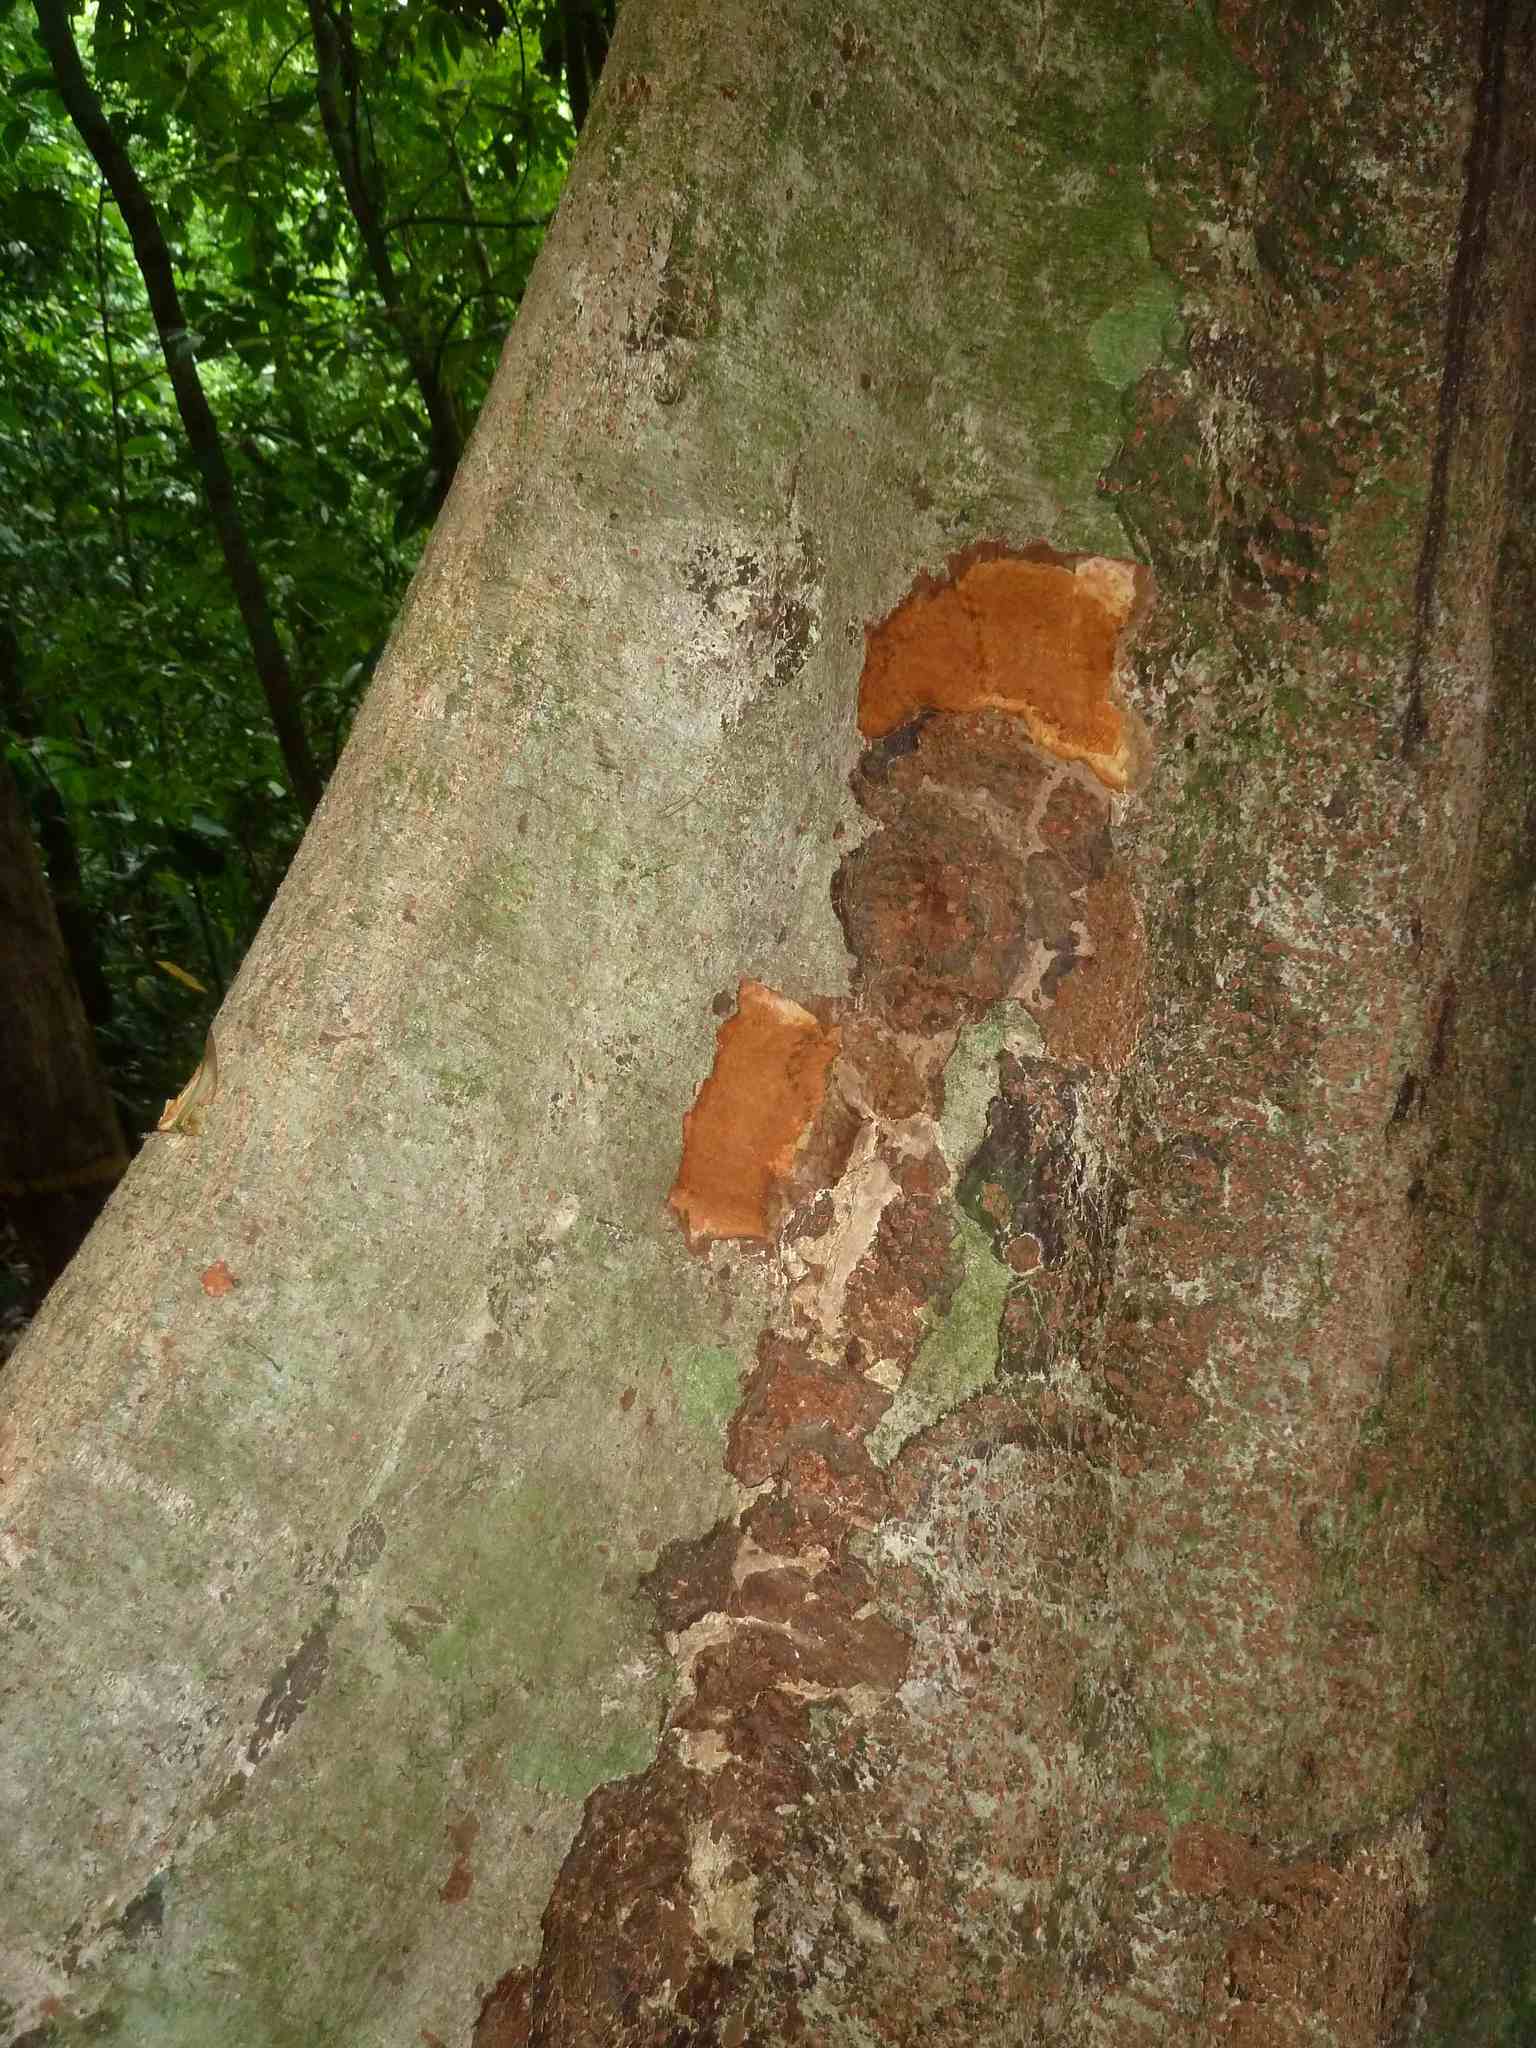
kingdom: Plantae
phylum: Tracheophyta
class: Magnoliopsida
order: Sapindales
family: Meliaceae
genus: Carapa
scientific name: Carapa guianensis
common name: Crabwood
